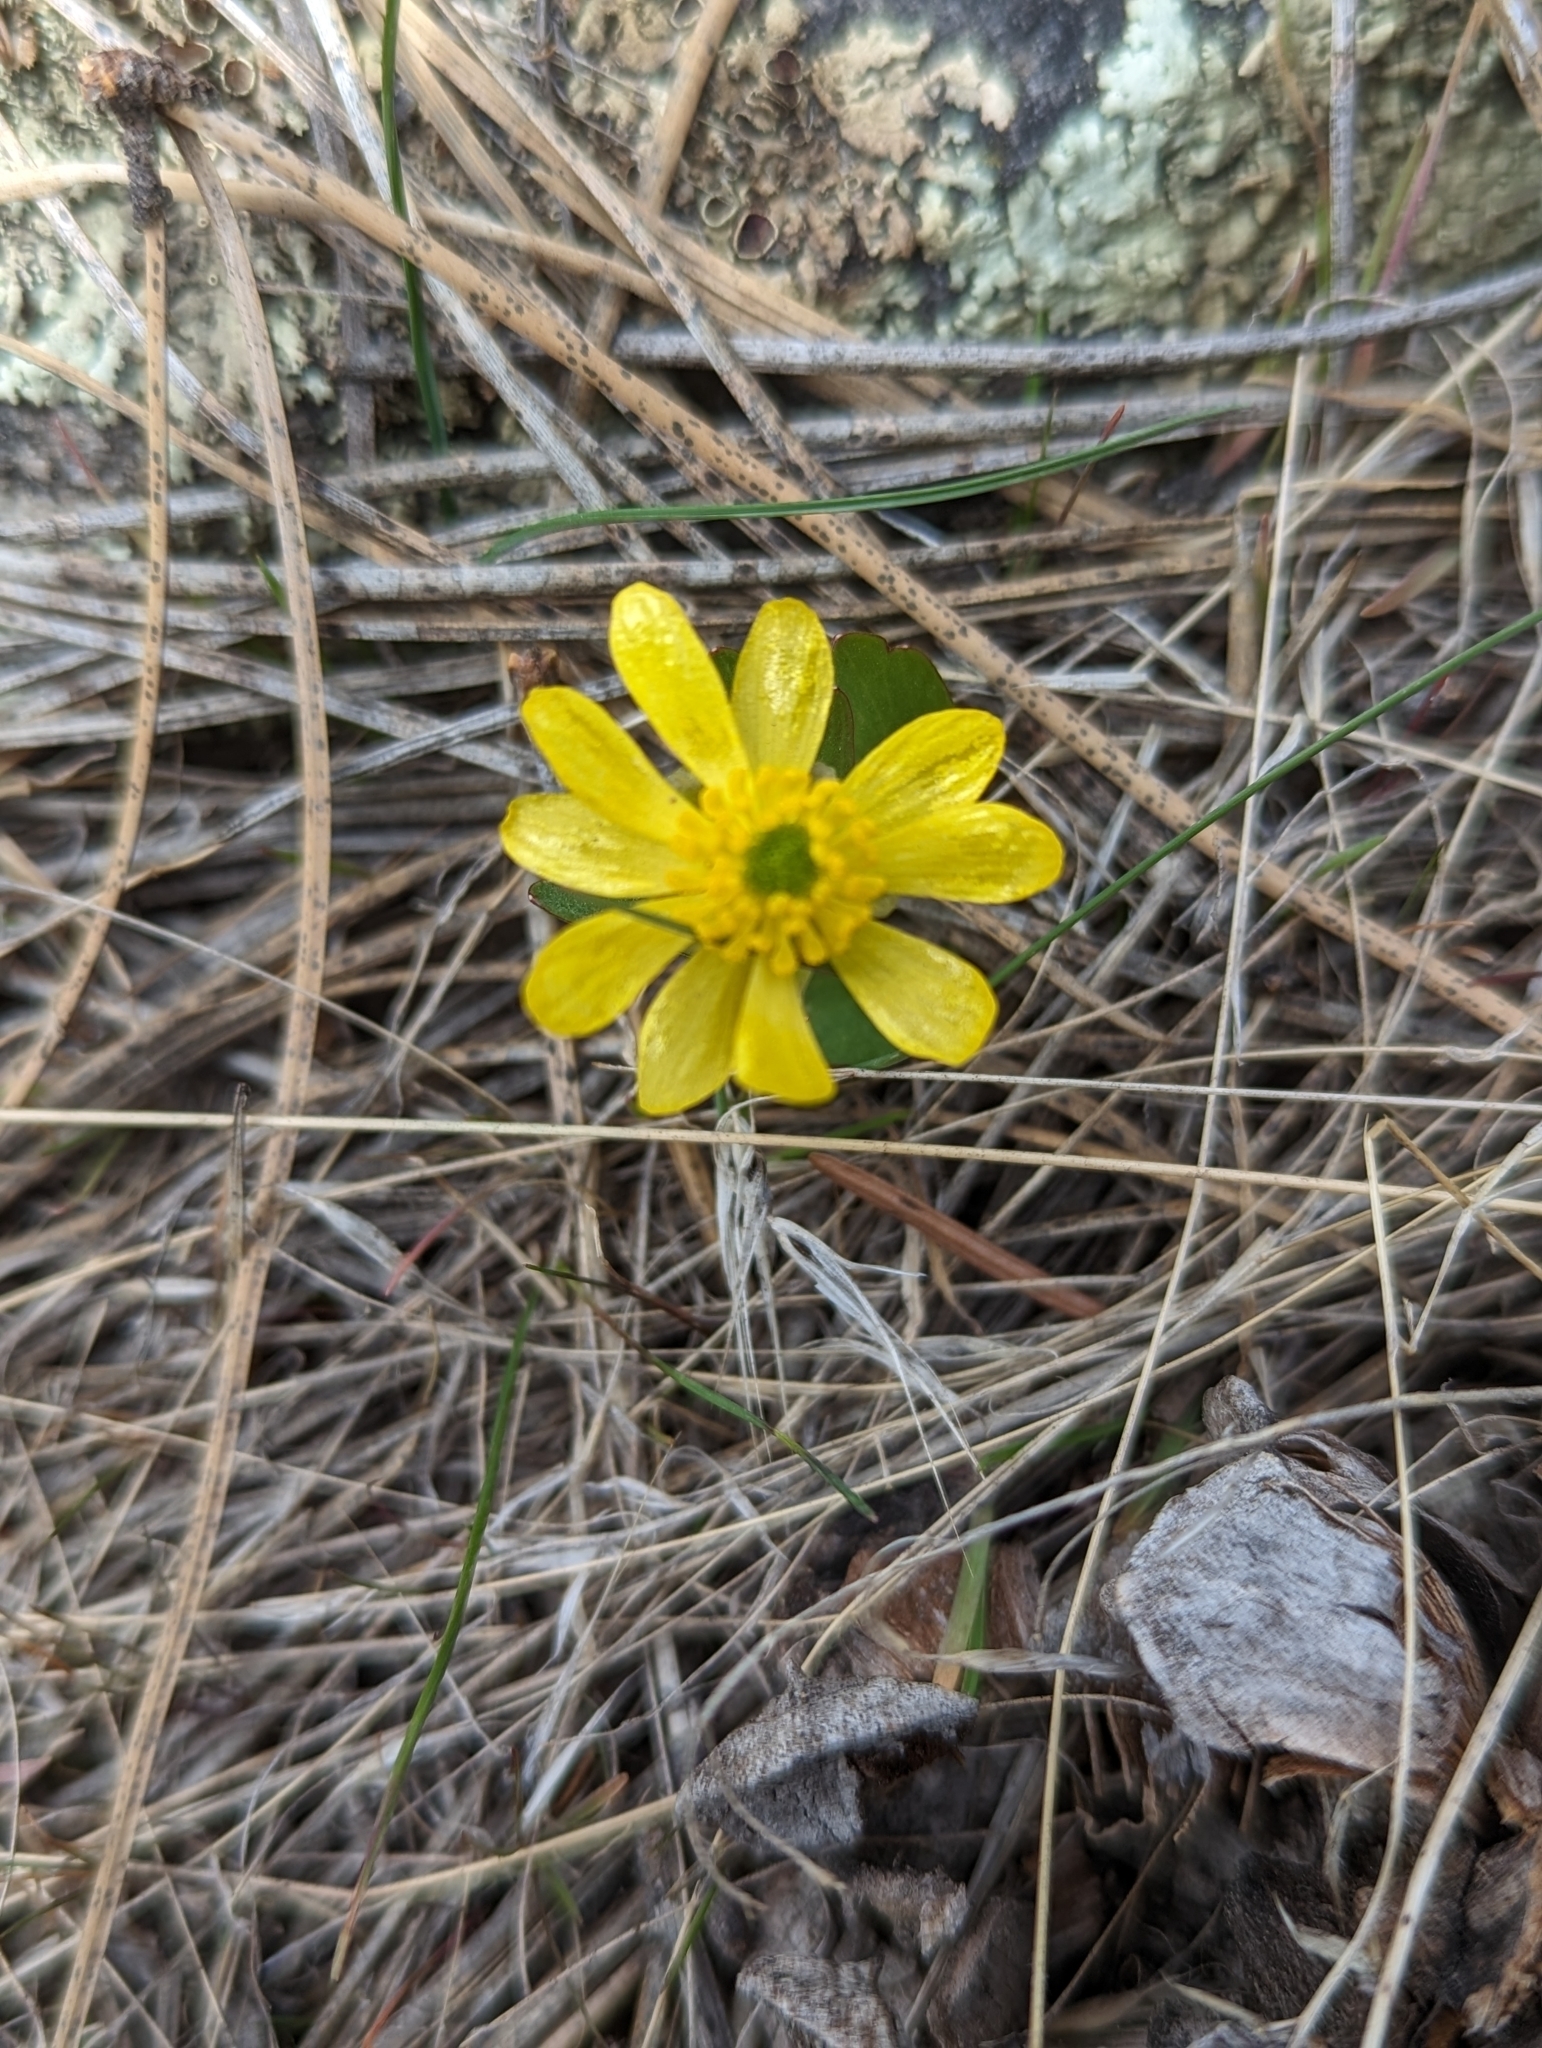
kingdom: Plantae
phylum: Tracheophyta
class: Magnoliopsida
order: Ranunculales
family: Ranunculaceae
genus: Ranunculus
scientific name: Ranunculus glaberrimus
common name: Sagebrush buttercup
